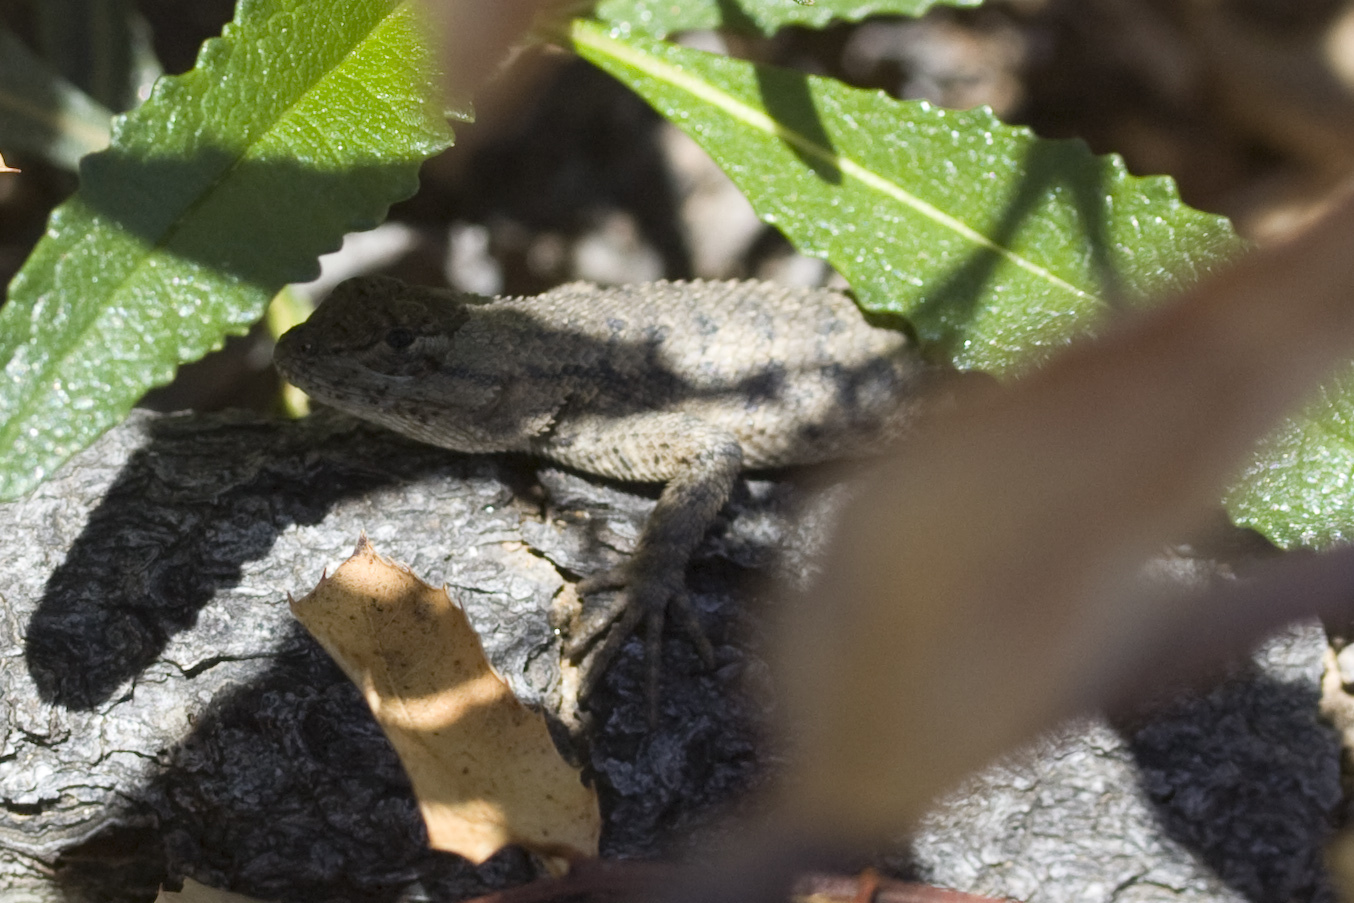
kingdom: Animalia
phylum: Chordata
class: Squamata
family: Phrynosomatidae
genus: Sceloporus
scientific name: Sceloporus occidentalis
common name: Western fence lizard
